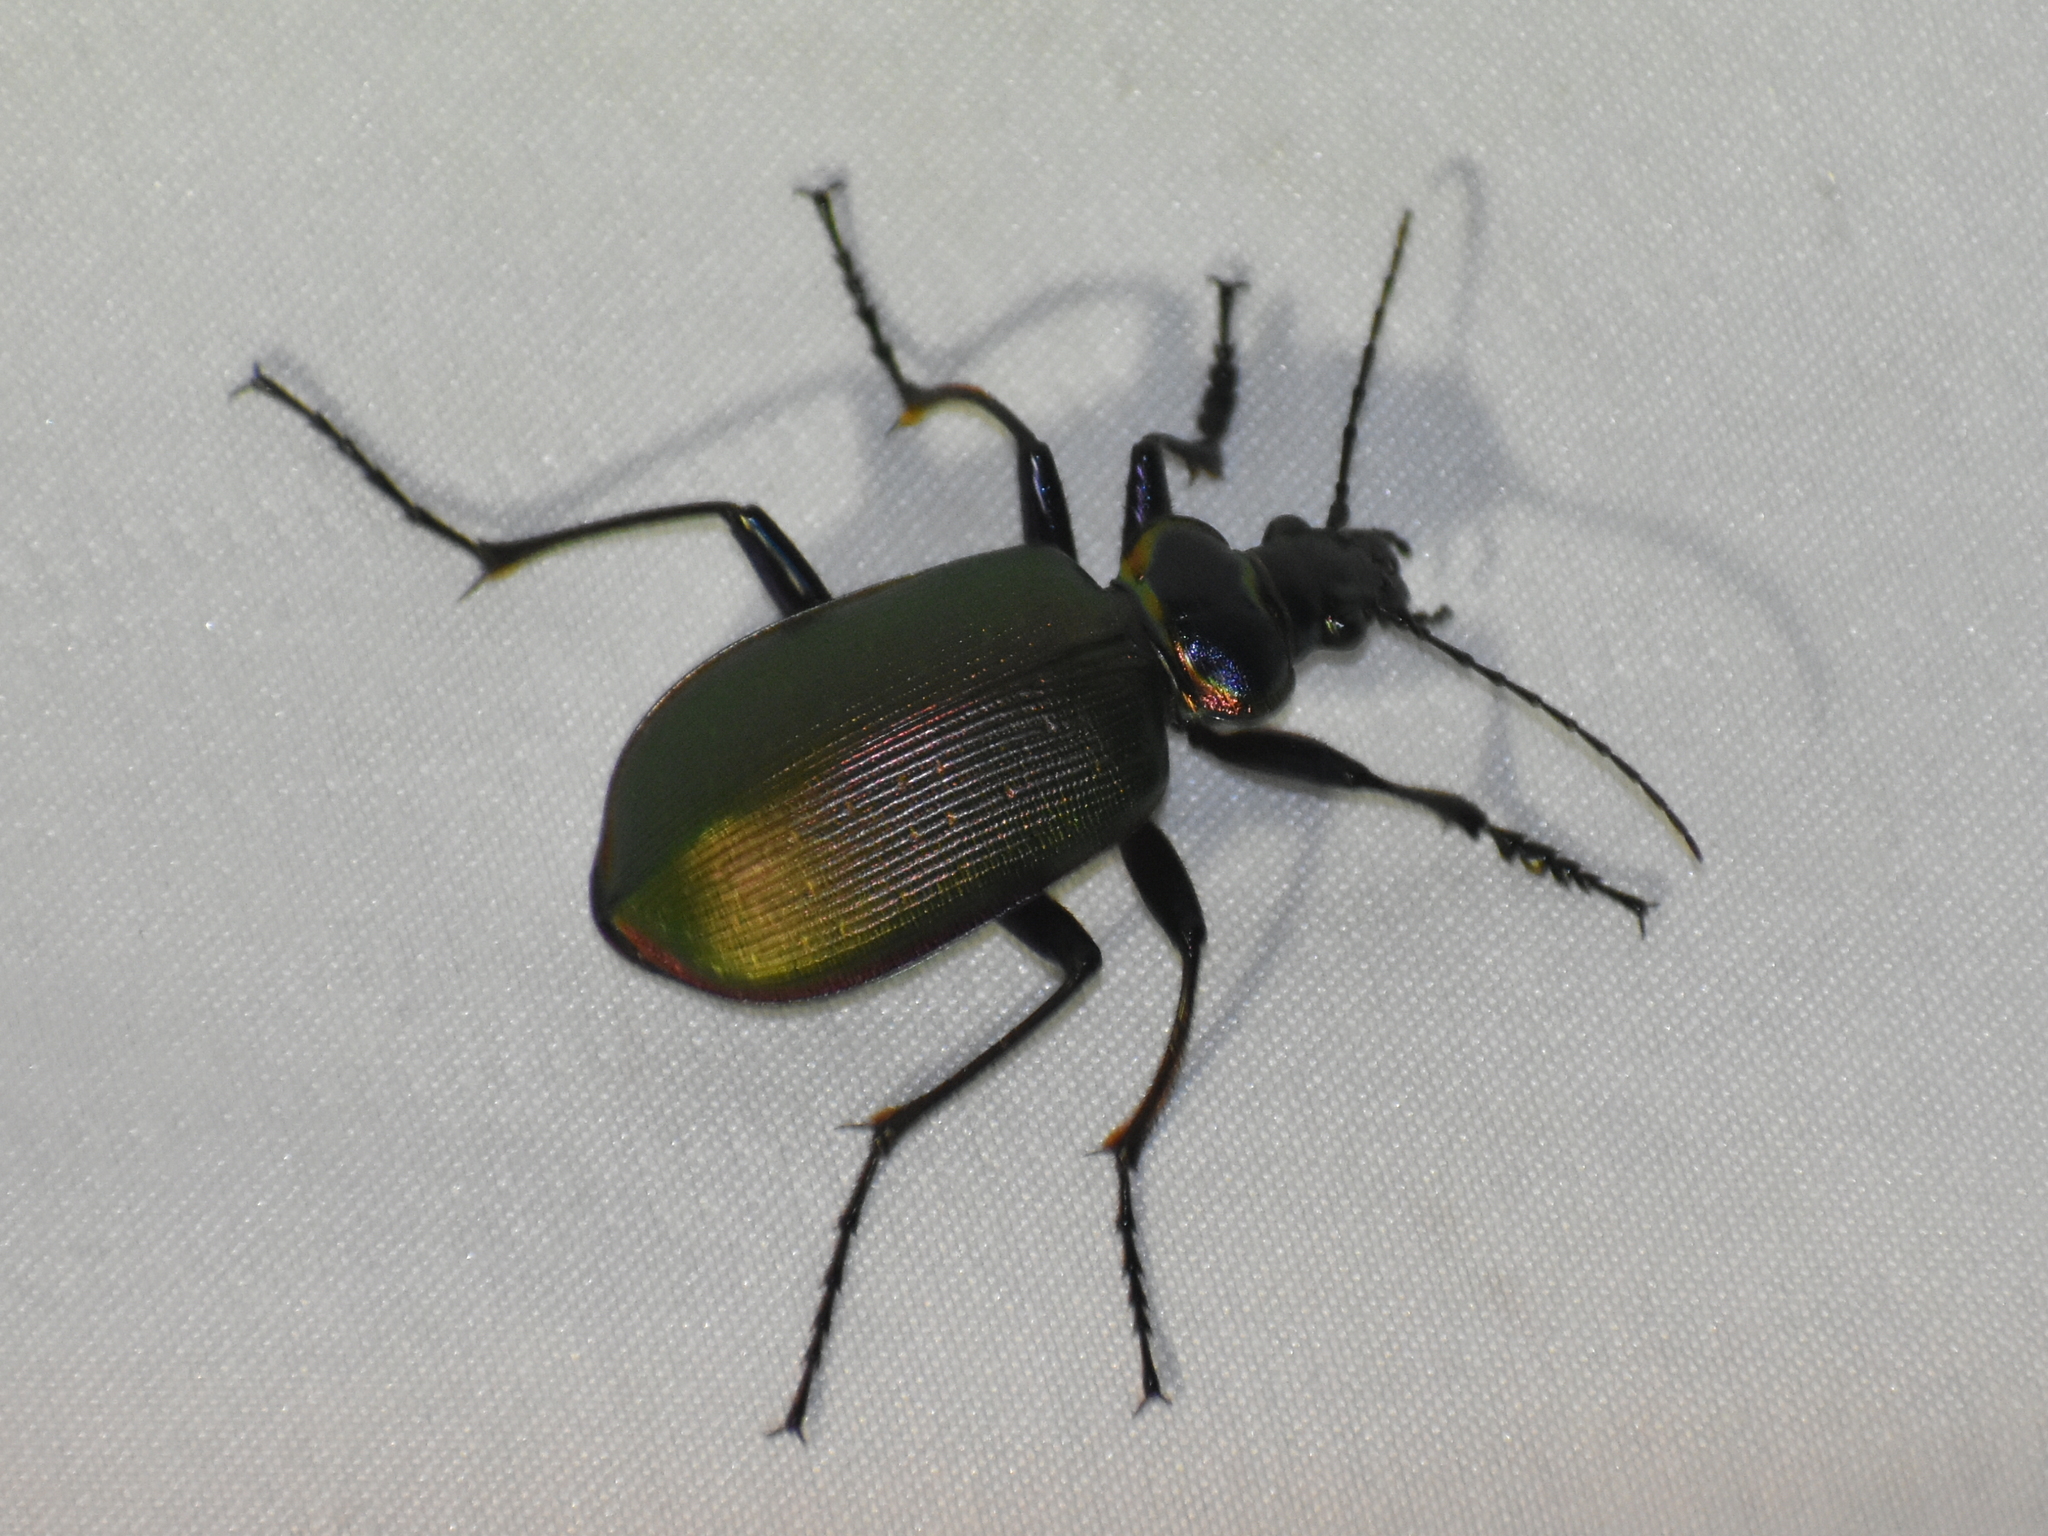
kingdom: Animalia
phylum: Arthropoda
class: Insecta
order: Coleoptera
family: Carabidae
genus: Calosoma
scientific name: Calosoma scrutator
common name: Fiery searcher beetle
